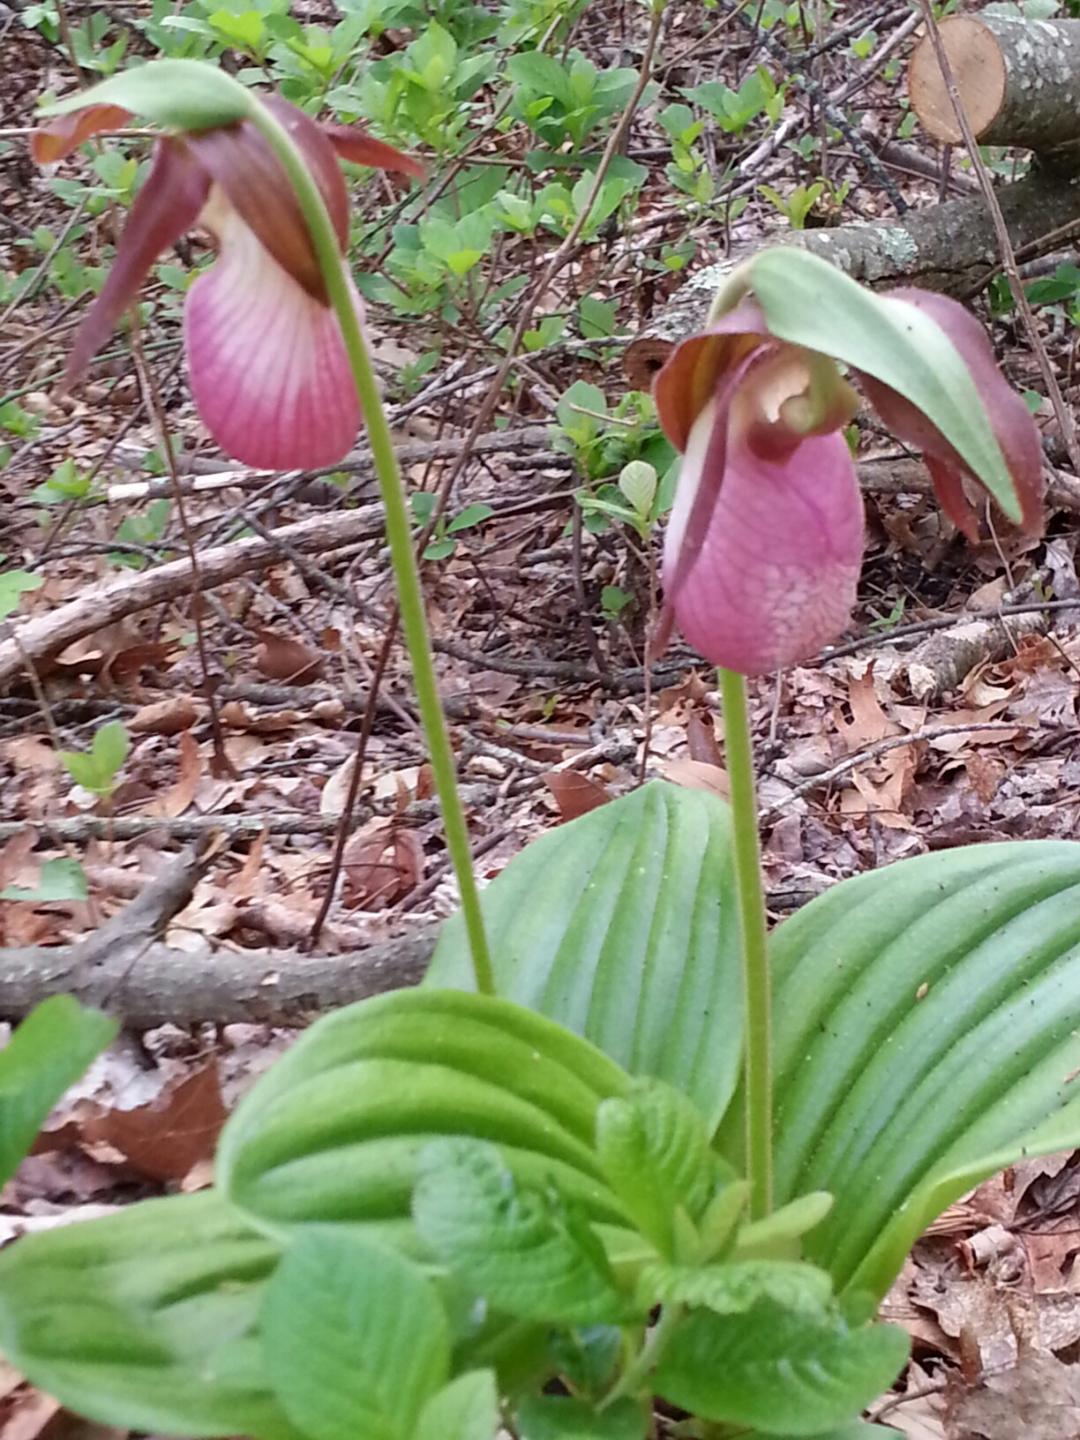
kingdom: Plantae
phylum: Tracheophyta
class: Liliopsida
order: Asparagales
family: Orchidaceae
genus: Cypripedium
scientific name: Cypripedium acaule
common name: Pink lady's-slipper
